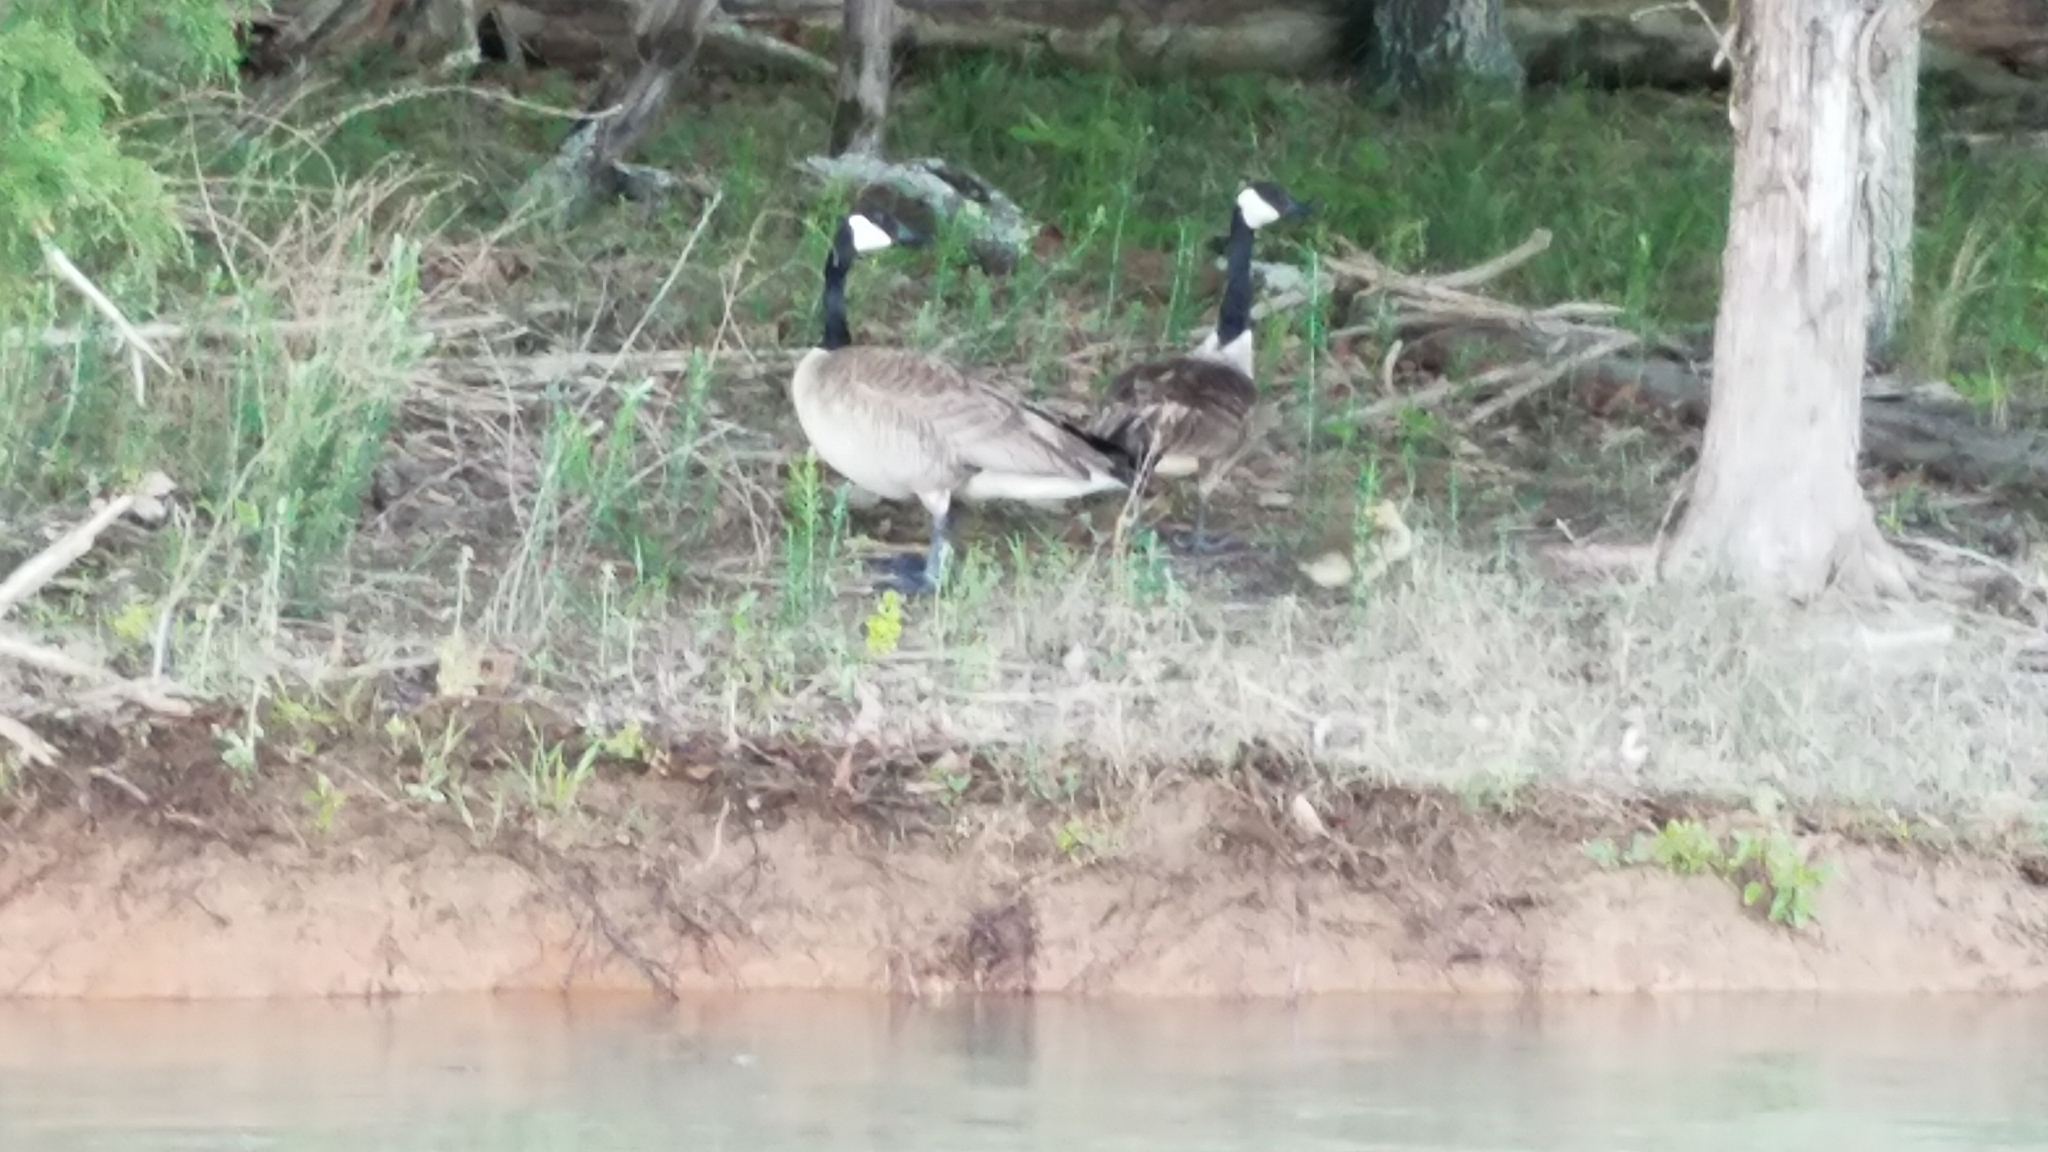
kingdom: Animalia
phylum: Chordata
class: Aves
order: Anseriformes
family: Anatidae
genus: Branta
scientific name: Branta canadensis
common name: Canada goose
